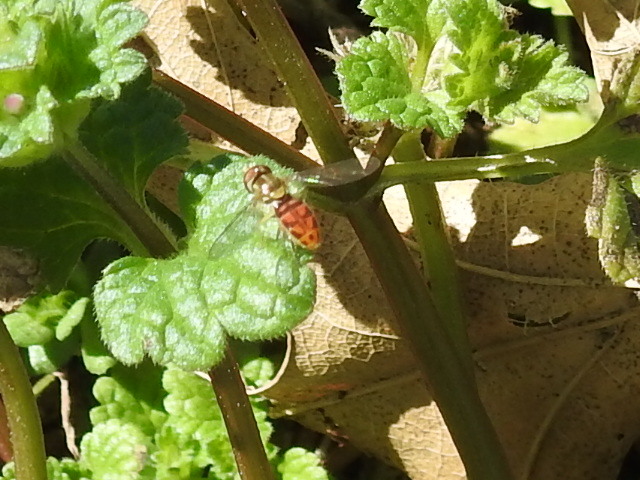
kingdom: Animalia
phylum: Arthropoda
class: Insecta
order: Diptera
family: Syrphidae
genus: Toxomerus
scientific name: Toxomerus marginatus
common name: Syrphid fly
